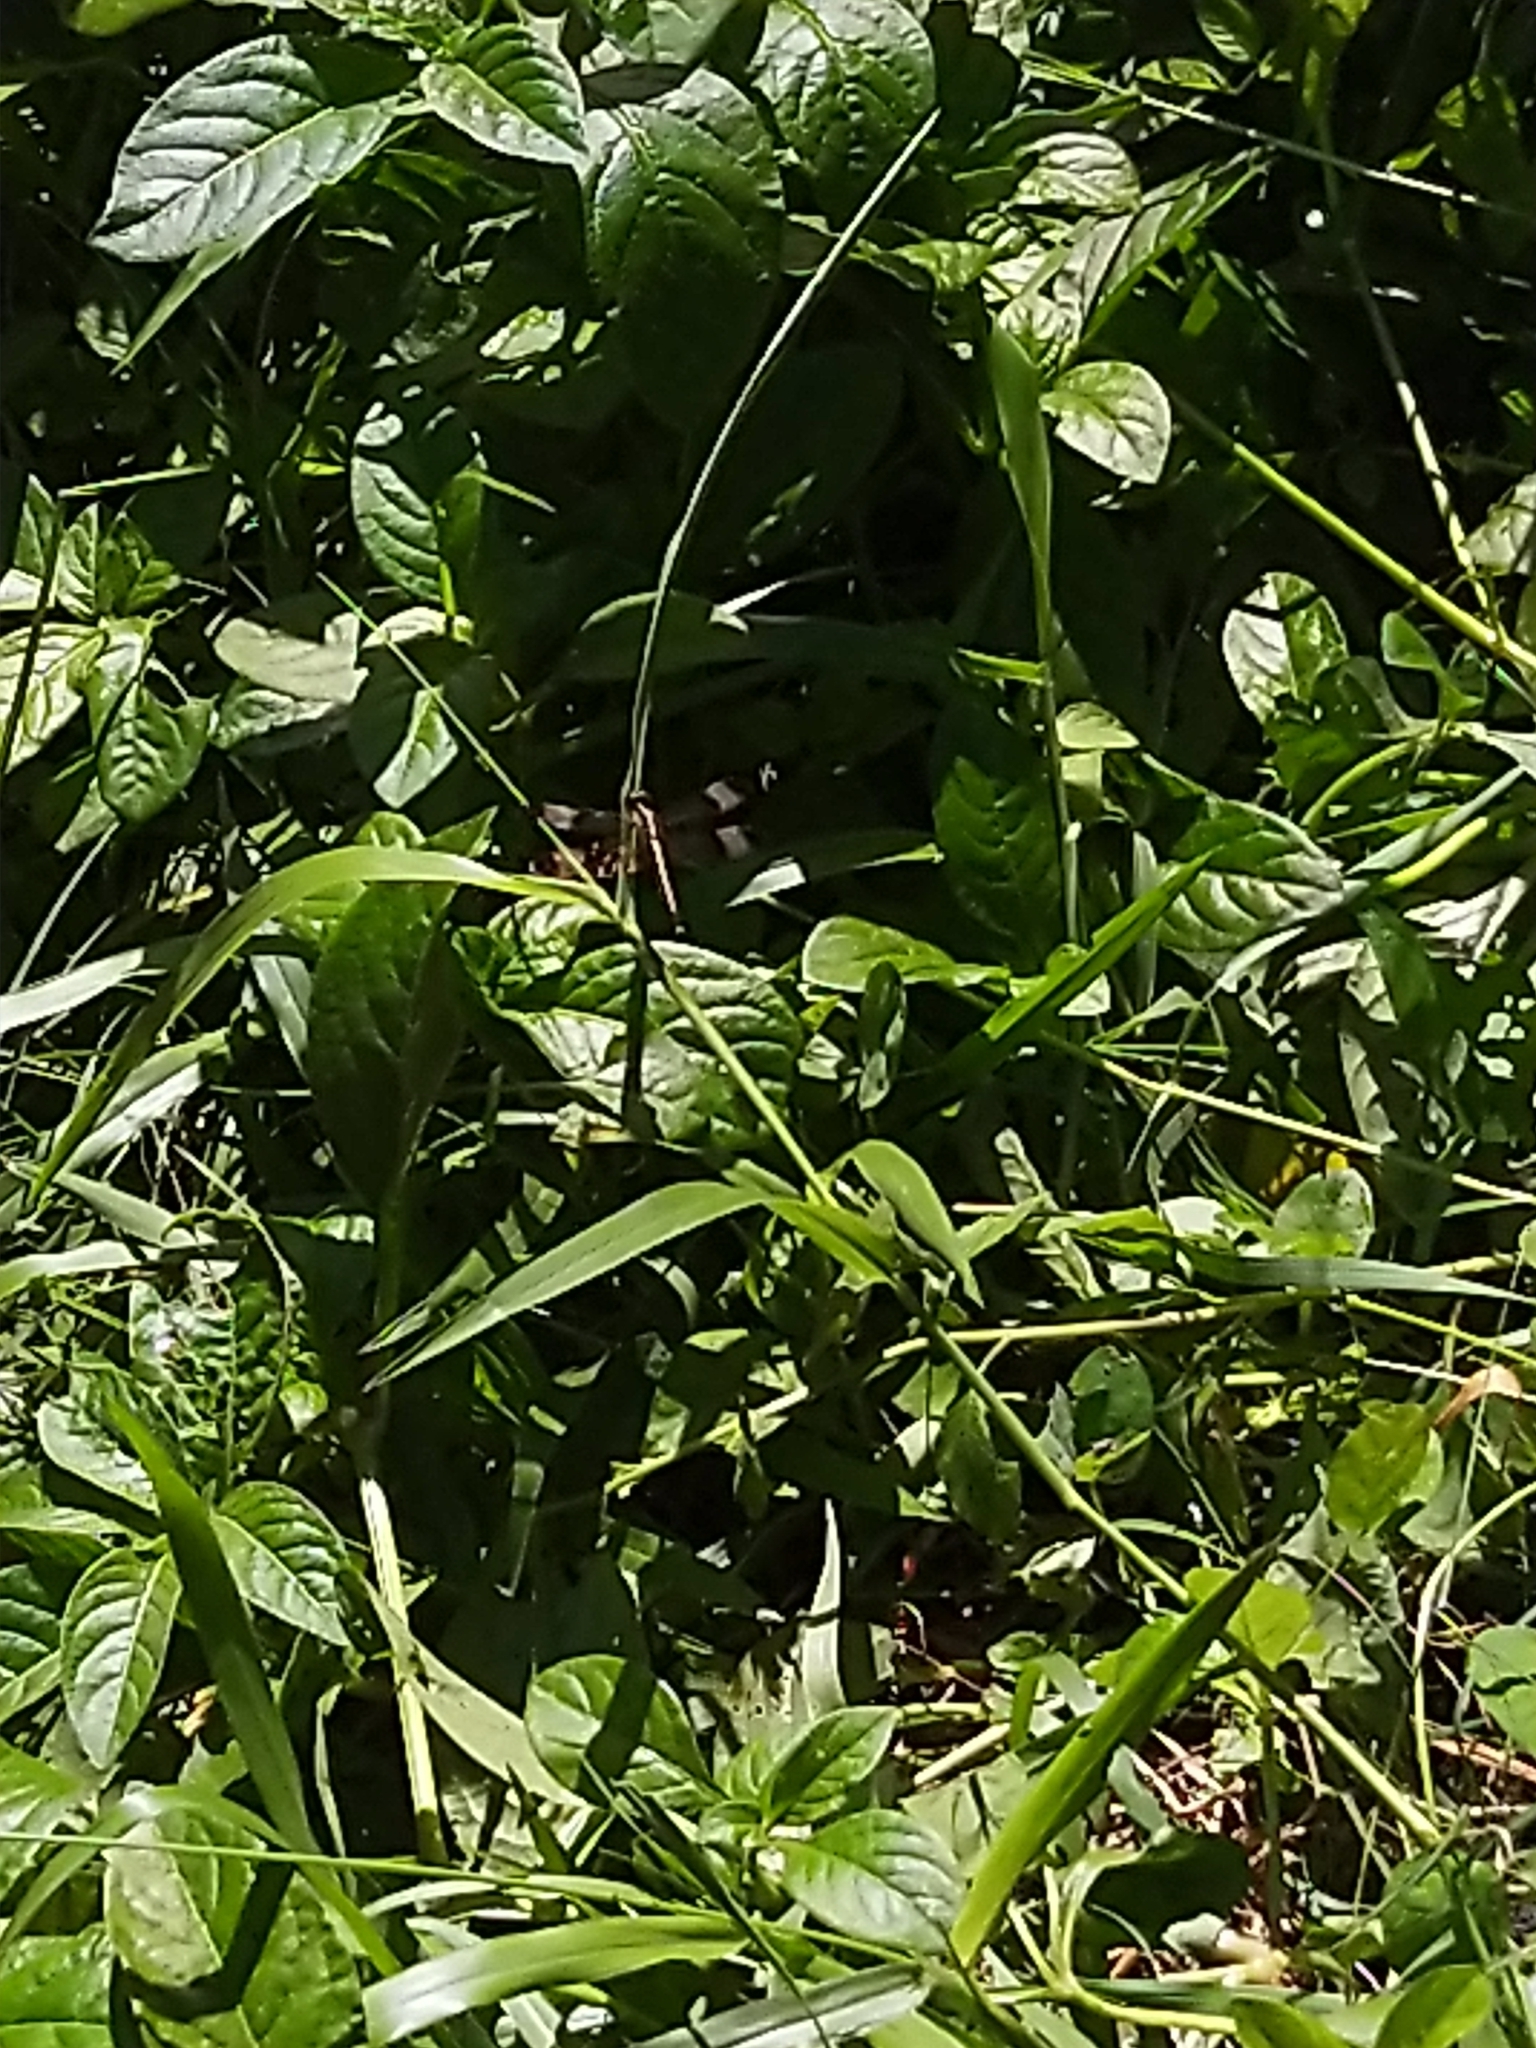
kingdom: Animalia
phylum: Arthropoda
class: Insecta
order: Odonata
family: Libellulidae
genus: Neurothemis
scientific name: Neurothemis tullia
